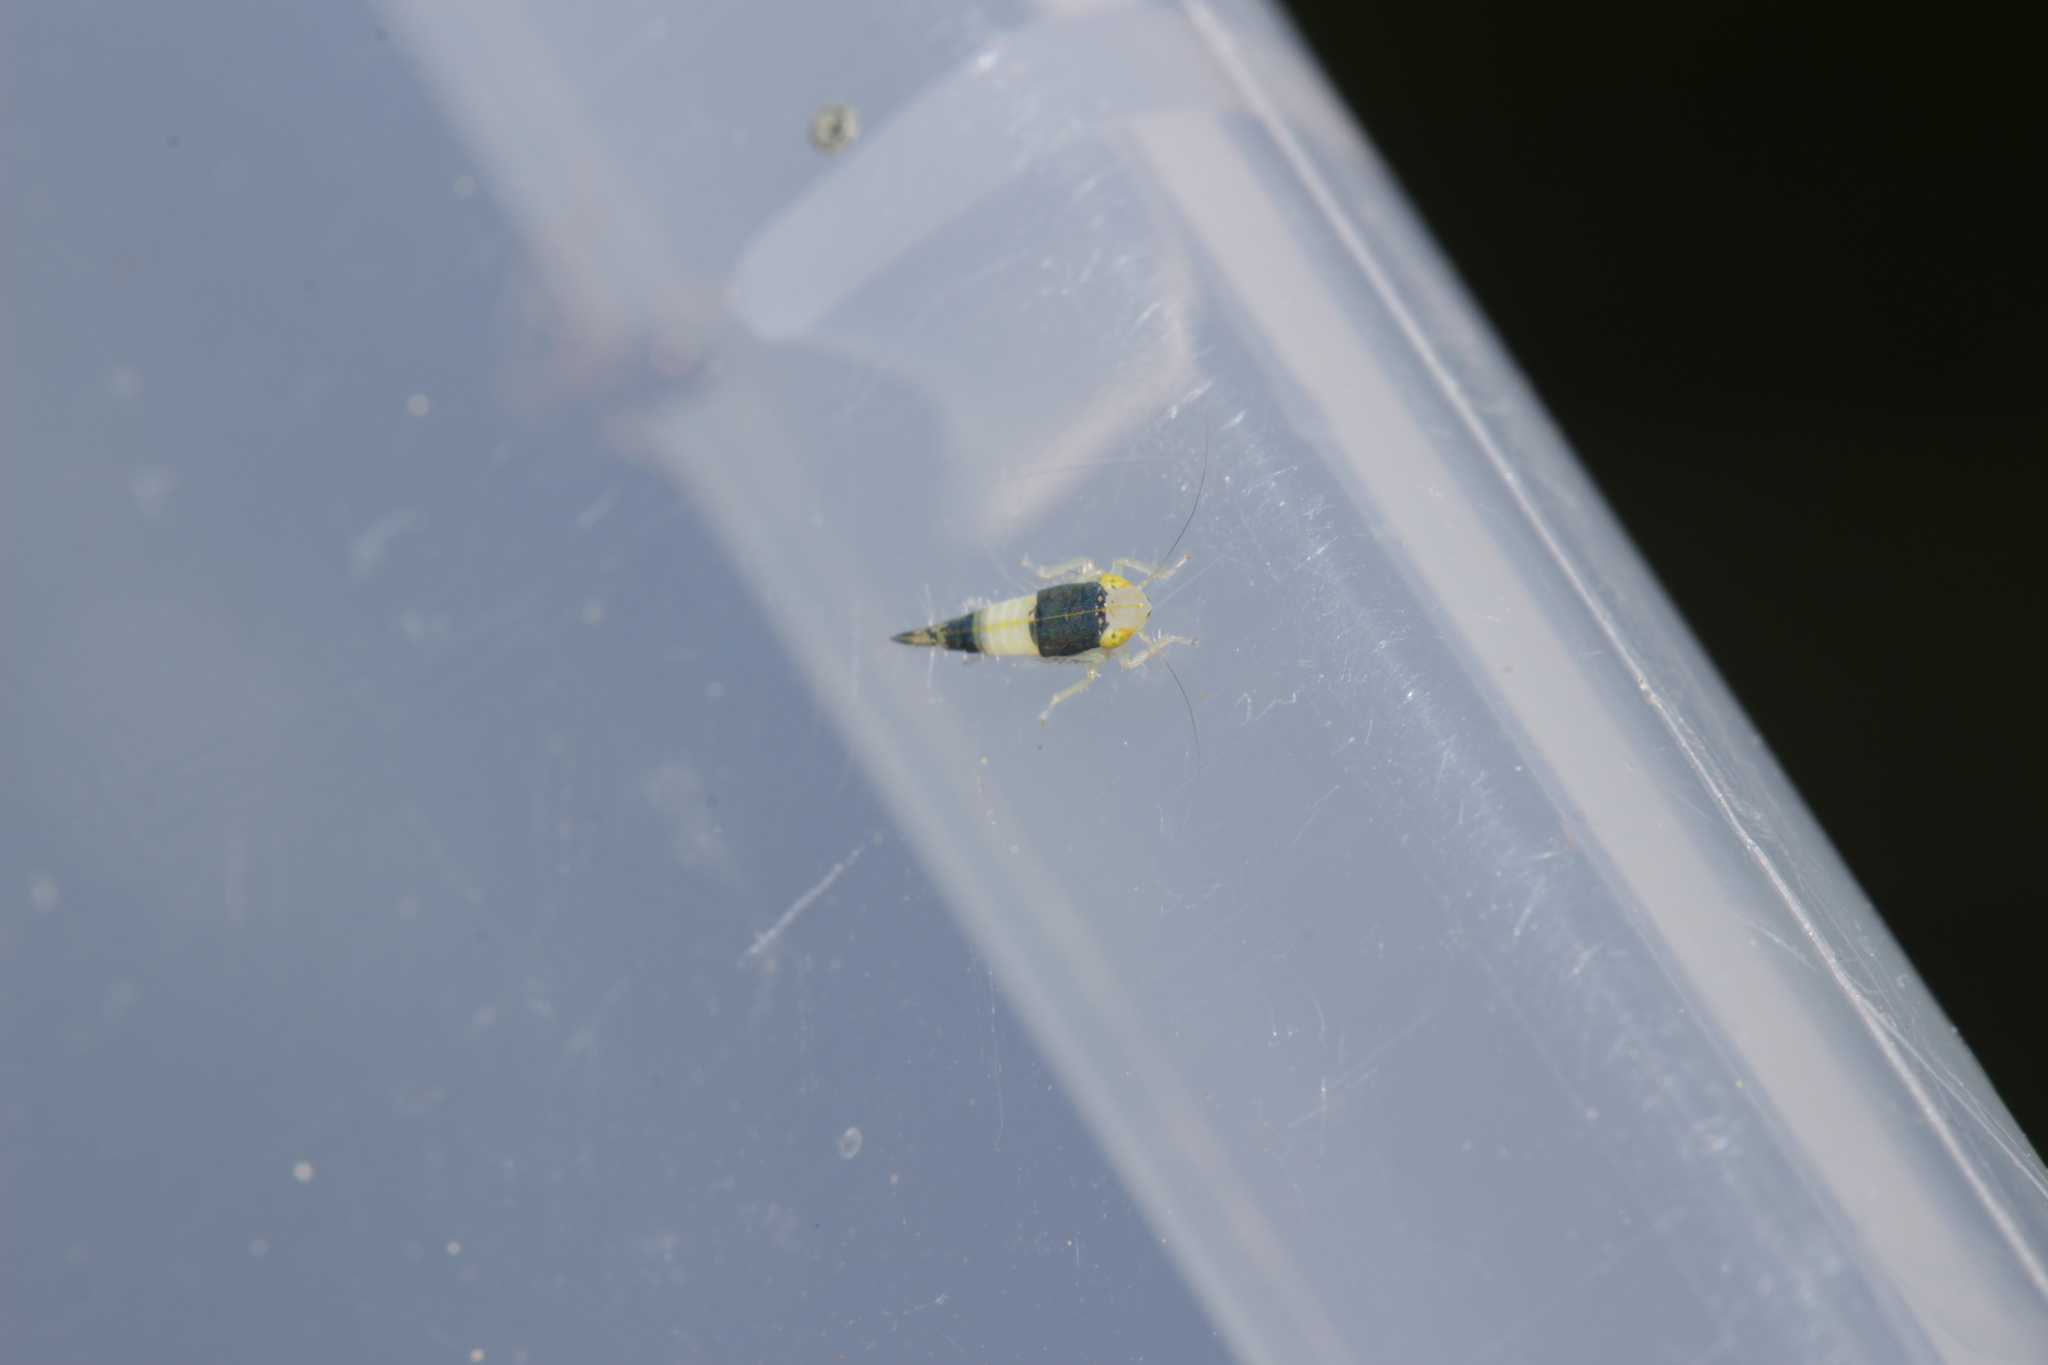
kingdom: Animalia
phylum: Arthropoda
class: Insecta
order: Hemiptera
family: Cicadellidae
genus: Mocydia
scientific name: Mocydia crocea
